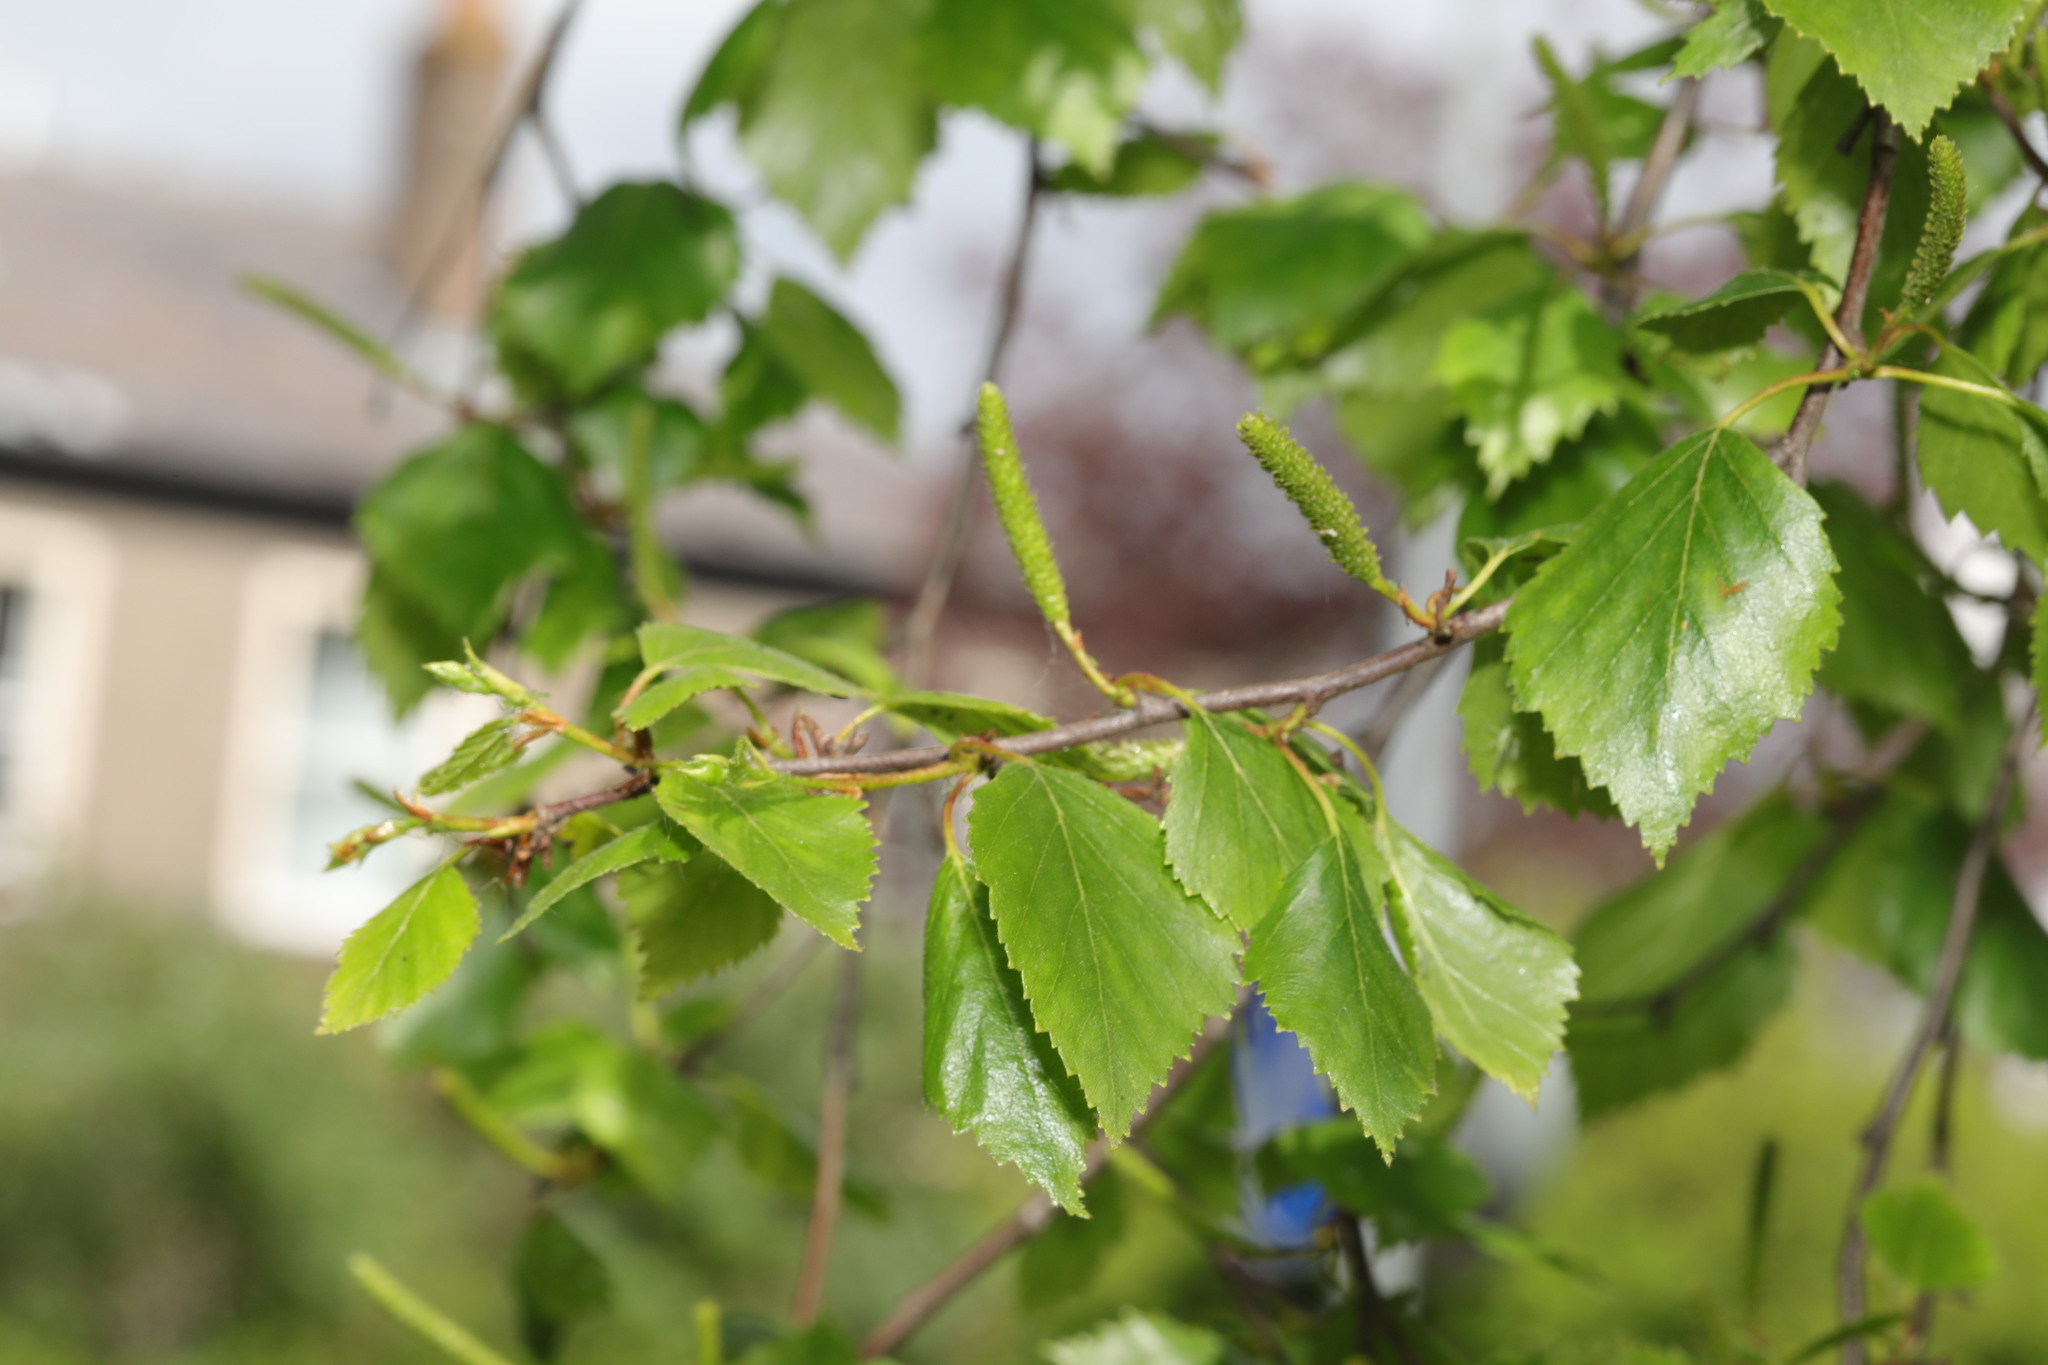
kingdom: Plantae
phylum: Tracheophyta
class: Magnoliopsida
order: Fagales
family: Betulaceae
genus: Betula
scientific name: Betula pendula
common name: Silver birch
